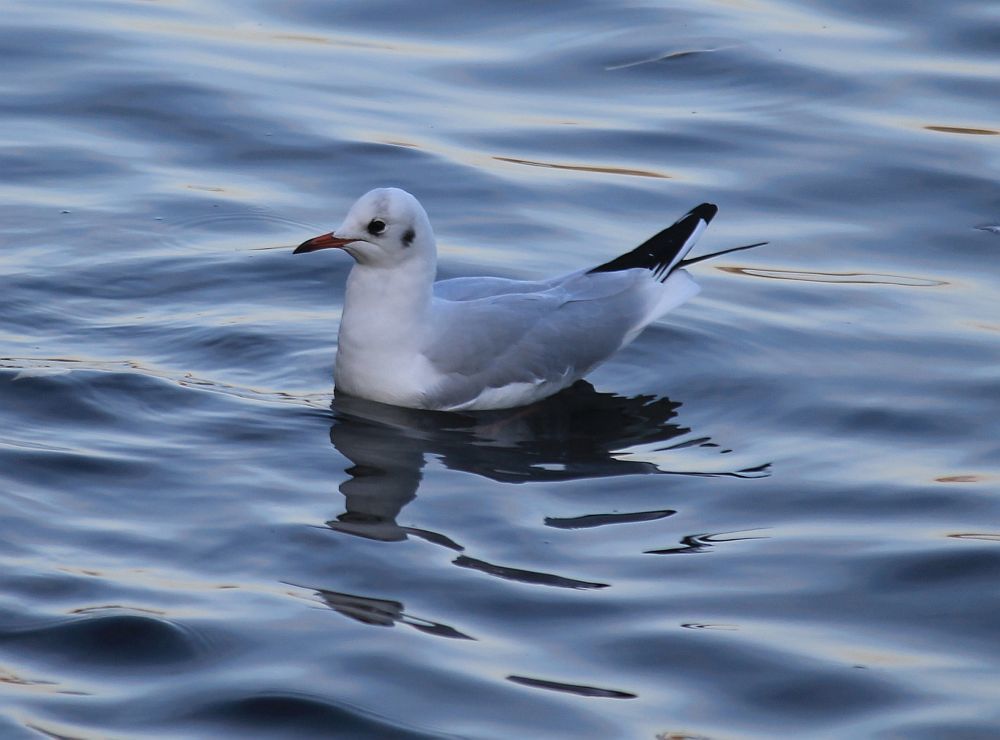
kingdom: Animalia
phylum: Chordata
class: Aves
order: Charadriiformes
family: Laridae
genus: Chroicocephalus
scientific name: Chroicocephalus ridibundus
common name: Black-headed gull
